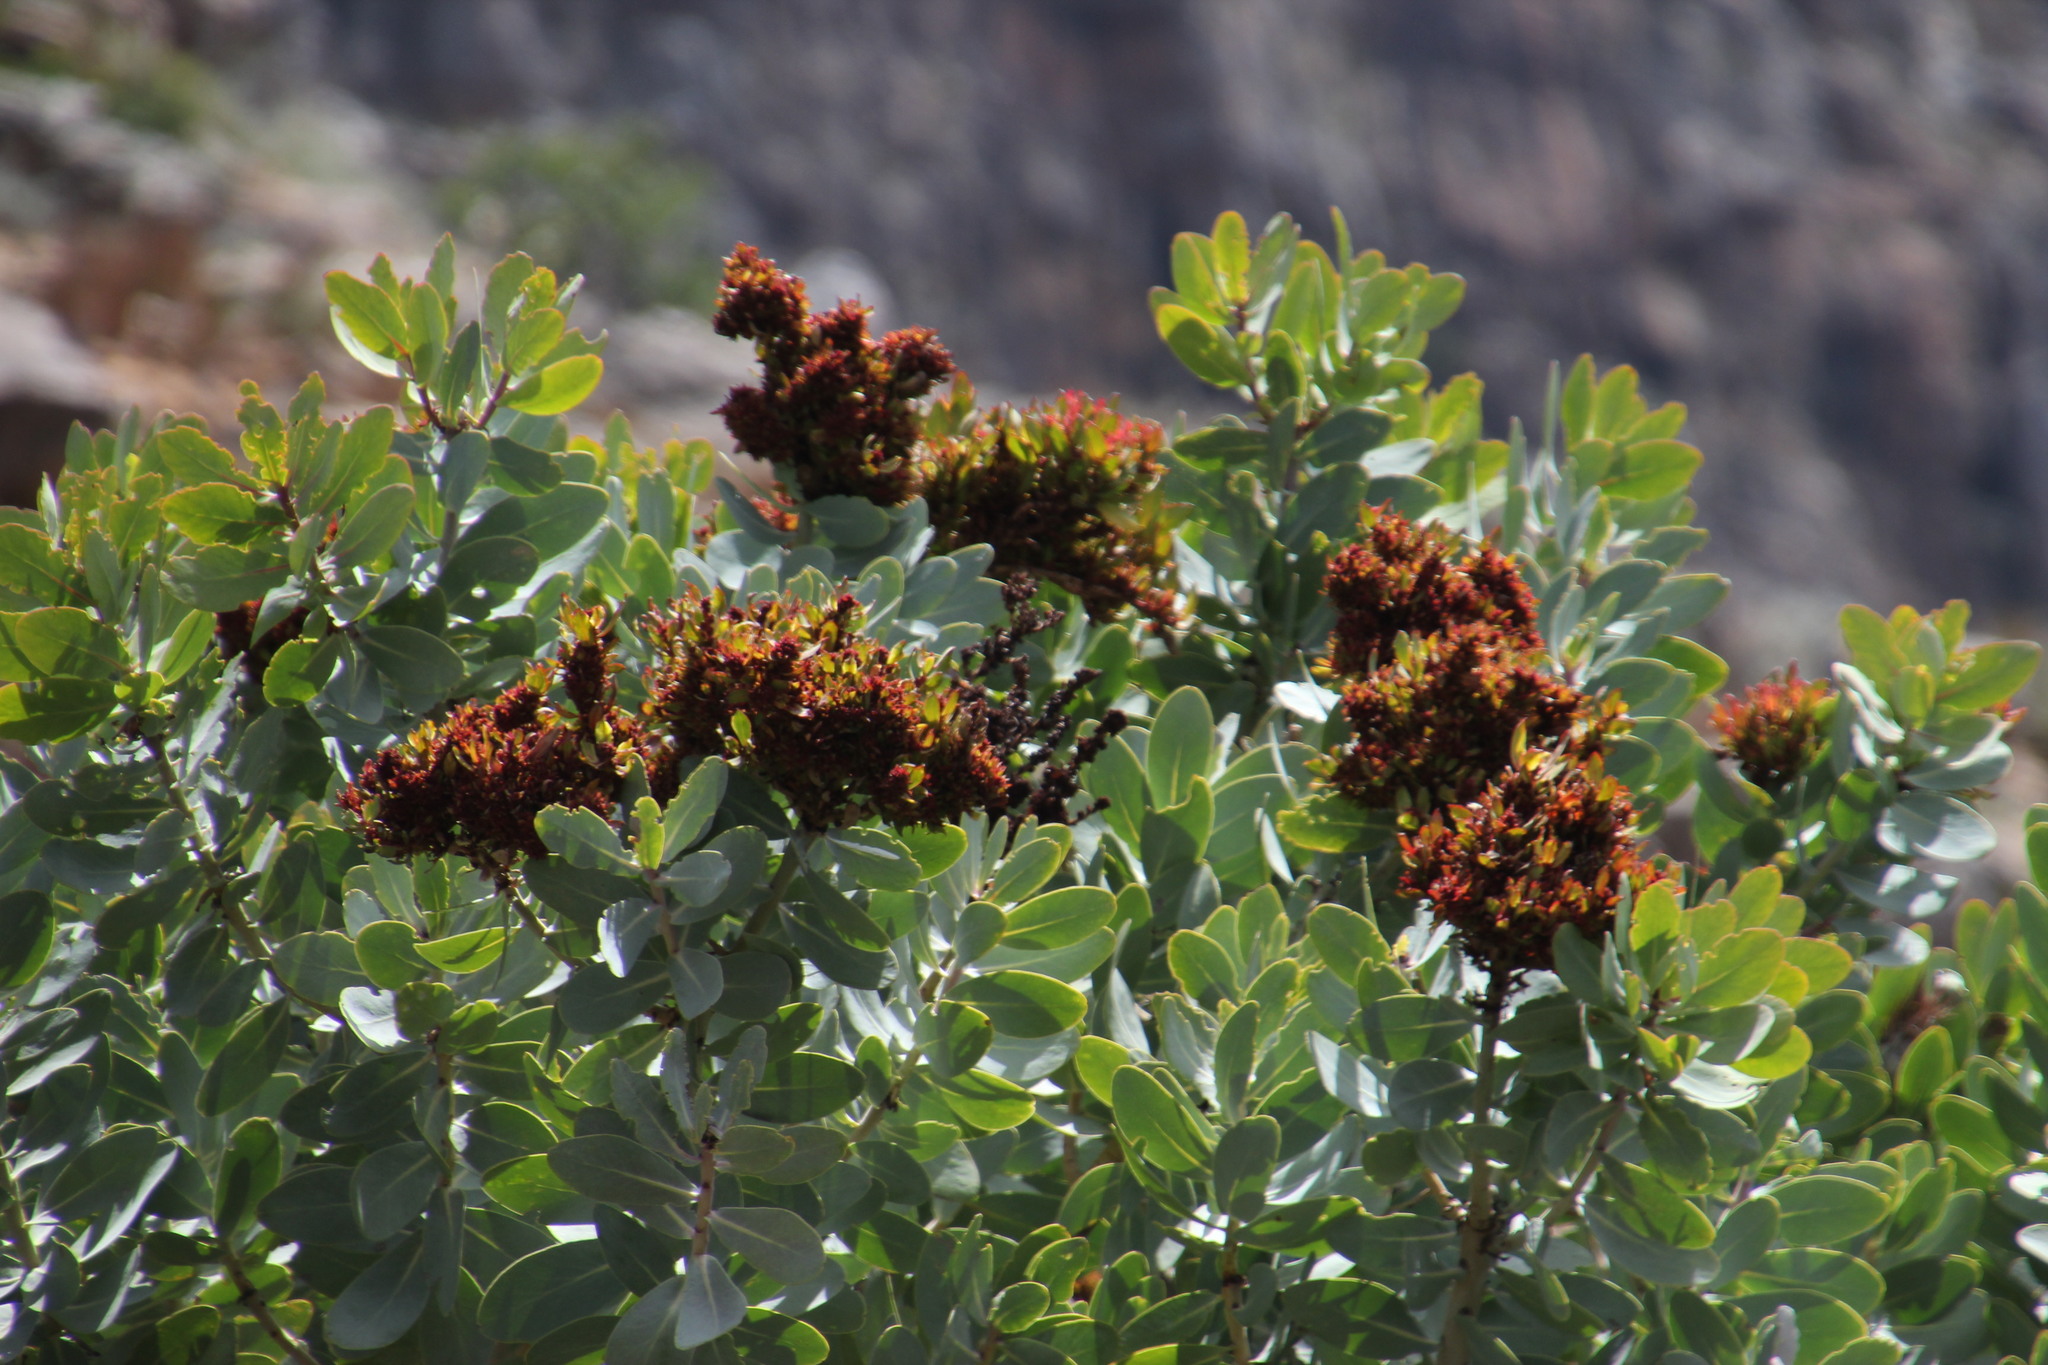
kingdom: Plantae
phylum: Tracheophyta
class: Magnoliopsida
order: Proteales
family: Proteaceae
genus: Protea
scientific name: Protea nitida
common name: Tree protea
